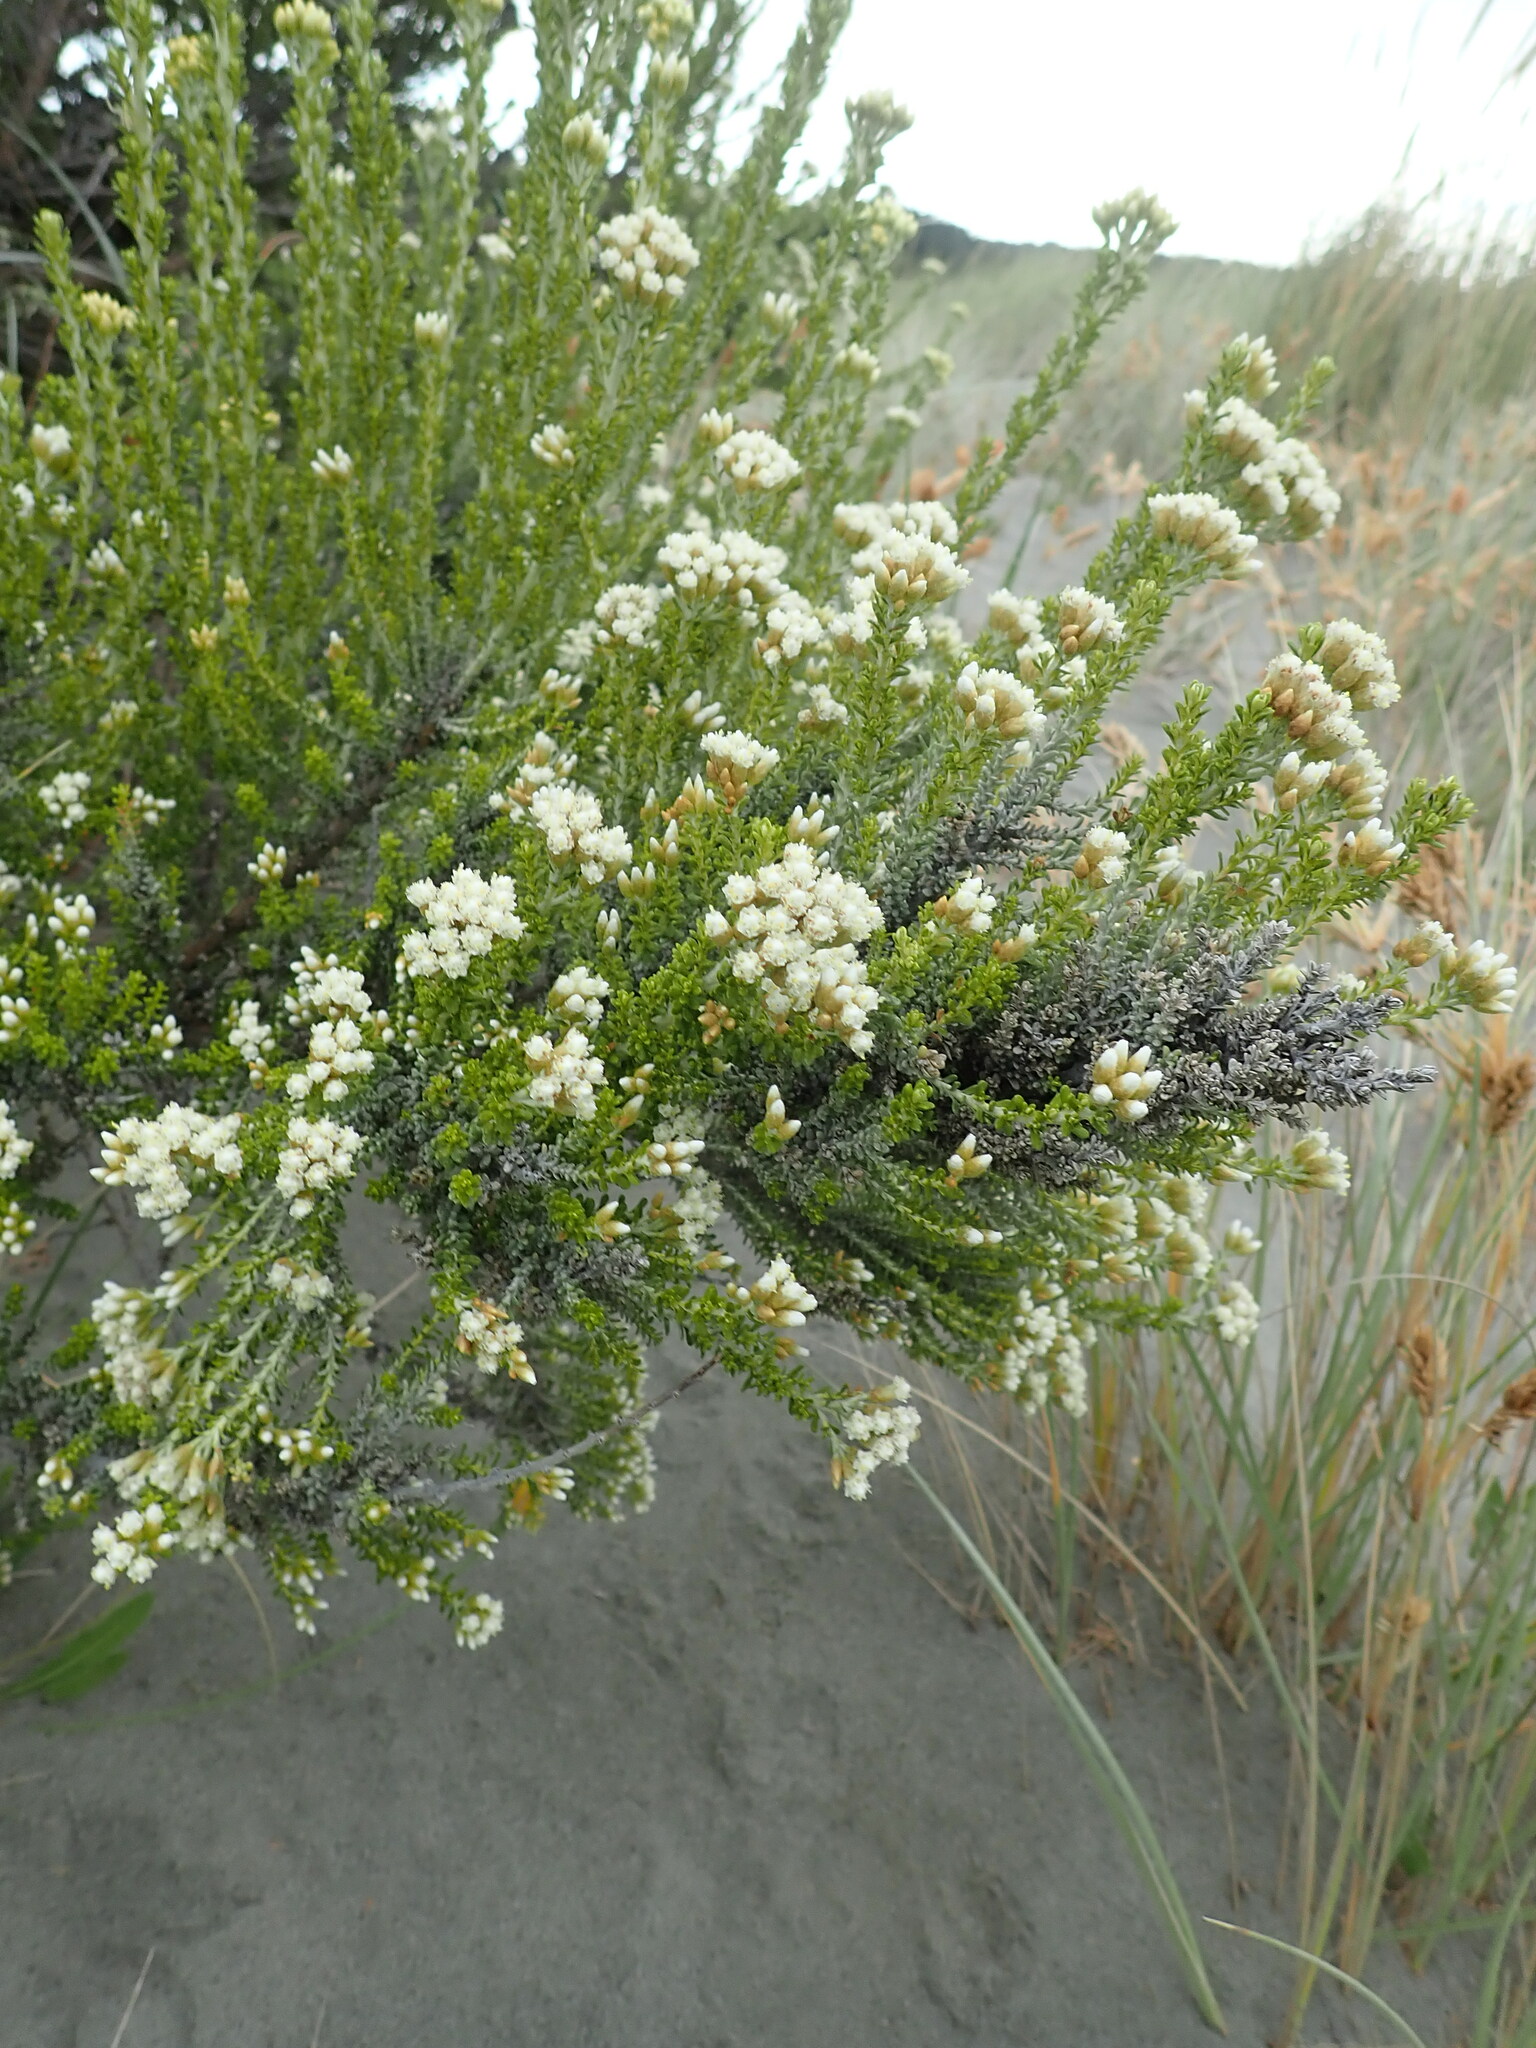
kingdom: Plantae
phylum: Tracheophyta
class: Magnoliopsida
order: Asterales
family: Asteraceae
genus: Ozothamnus
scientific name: Ozothamnus leptophyllus
